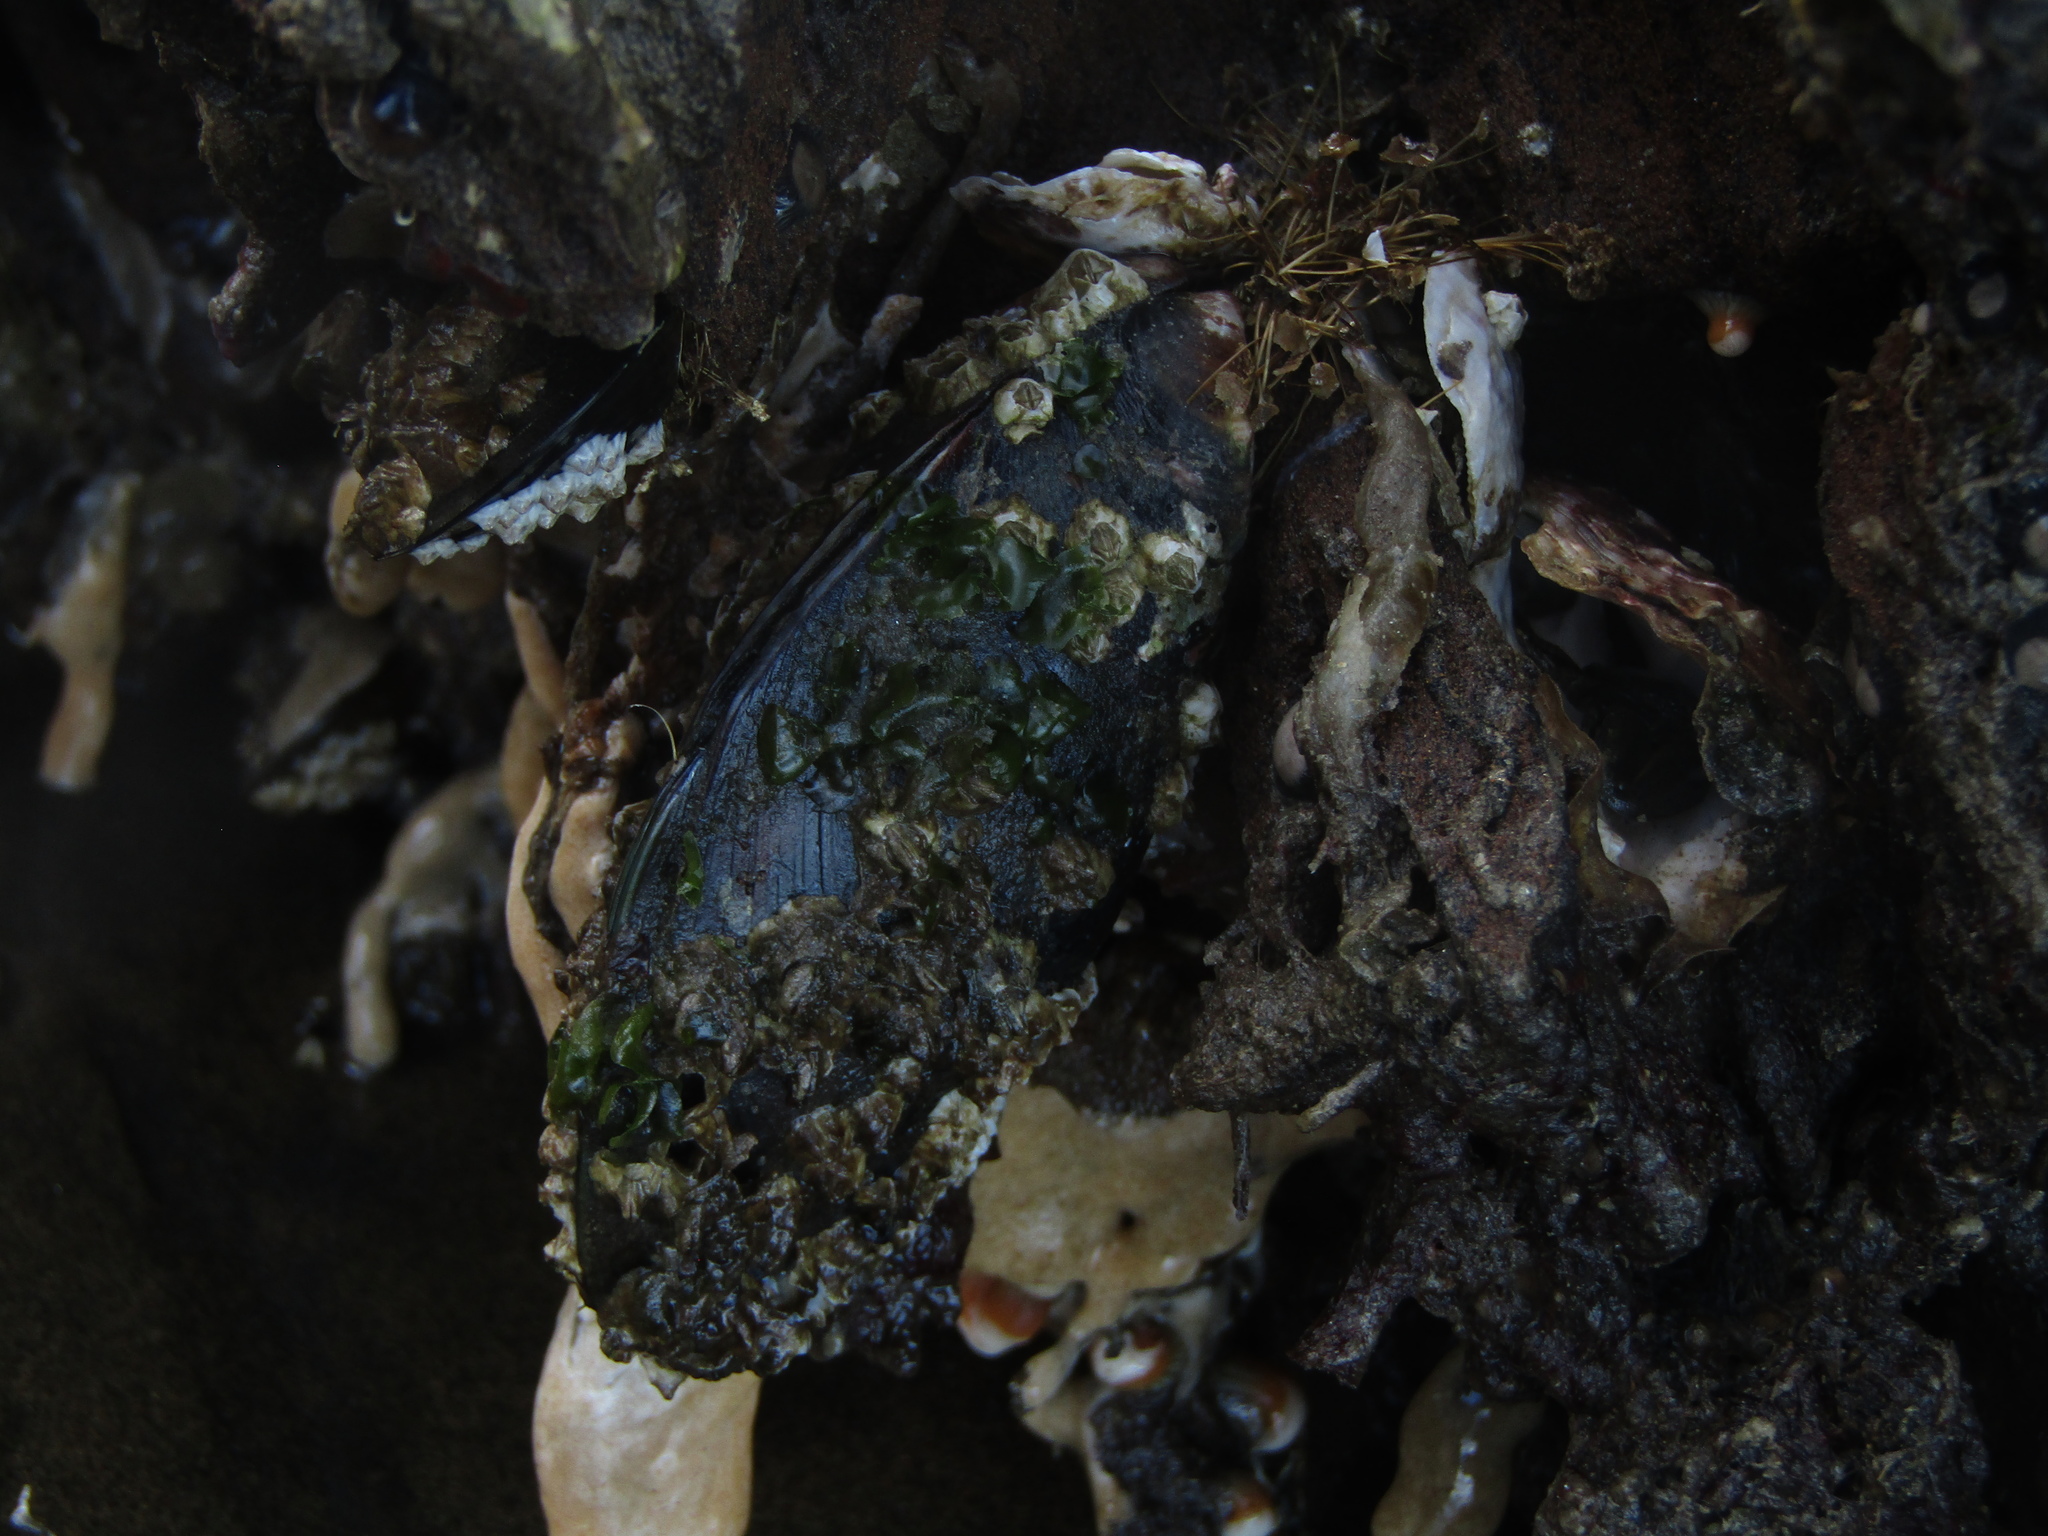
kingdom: Animalia
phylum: Mollusca
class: Bivalvia
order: Mytilida
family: Mytilidae
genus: Perna
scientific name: Perna canaliculus
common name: New zealand greenshelltm
